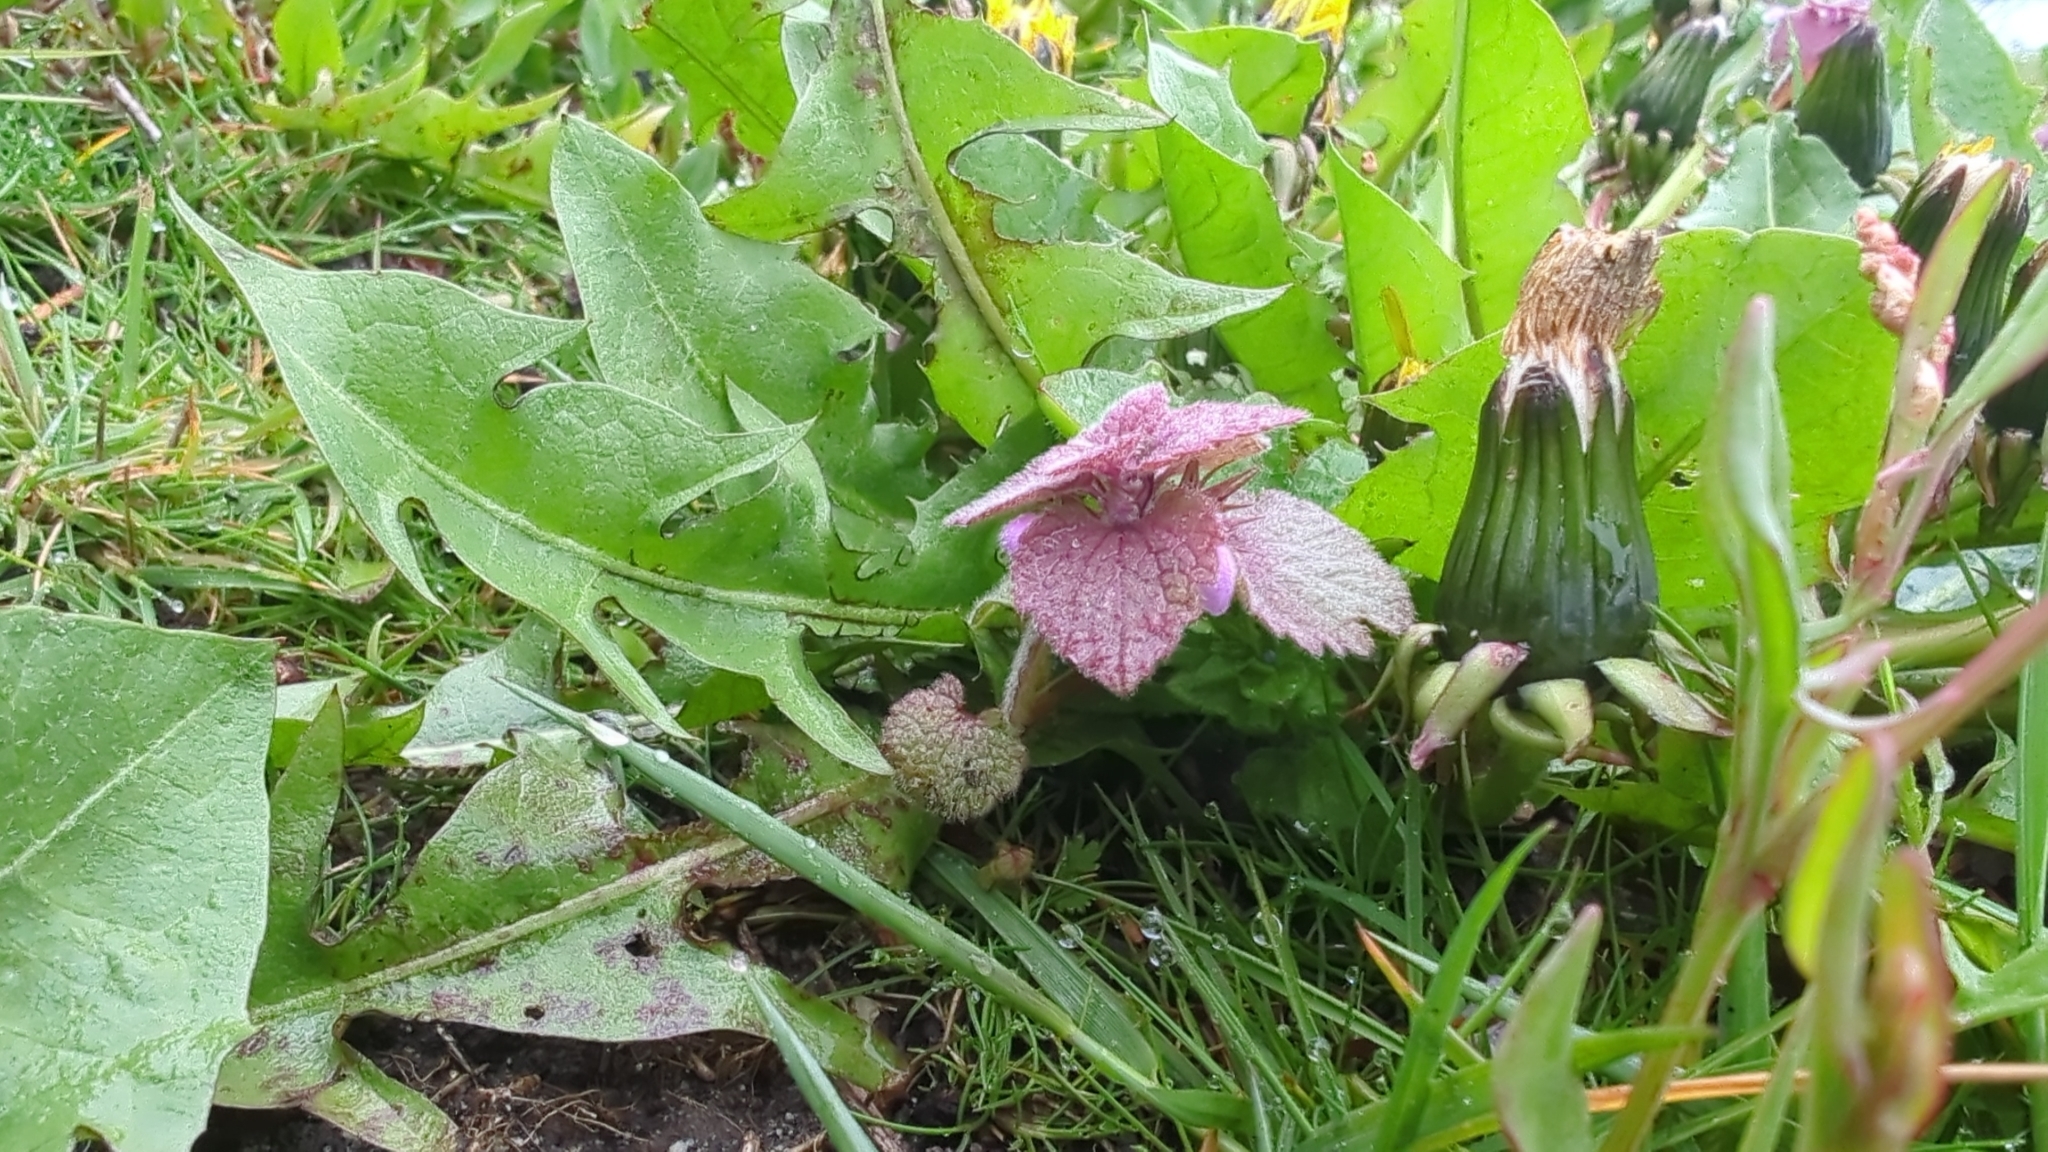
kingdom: Plantae
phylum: Tracheophyta
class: Magnoliopsida
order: Lamiales
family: Lamiaceae
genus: Lamium
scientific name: Lamium purpureum
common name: Red dead-nettle
